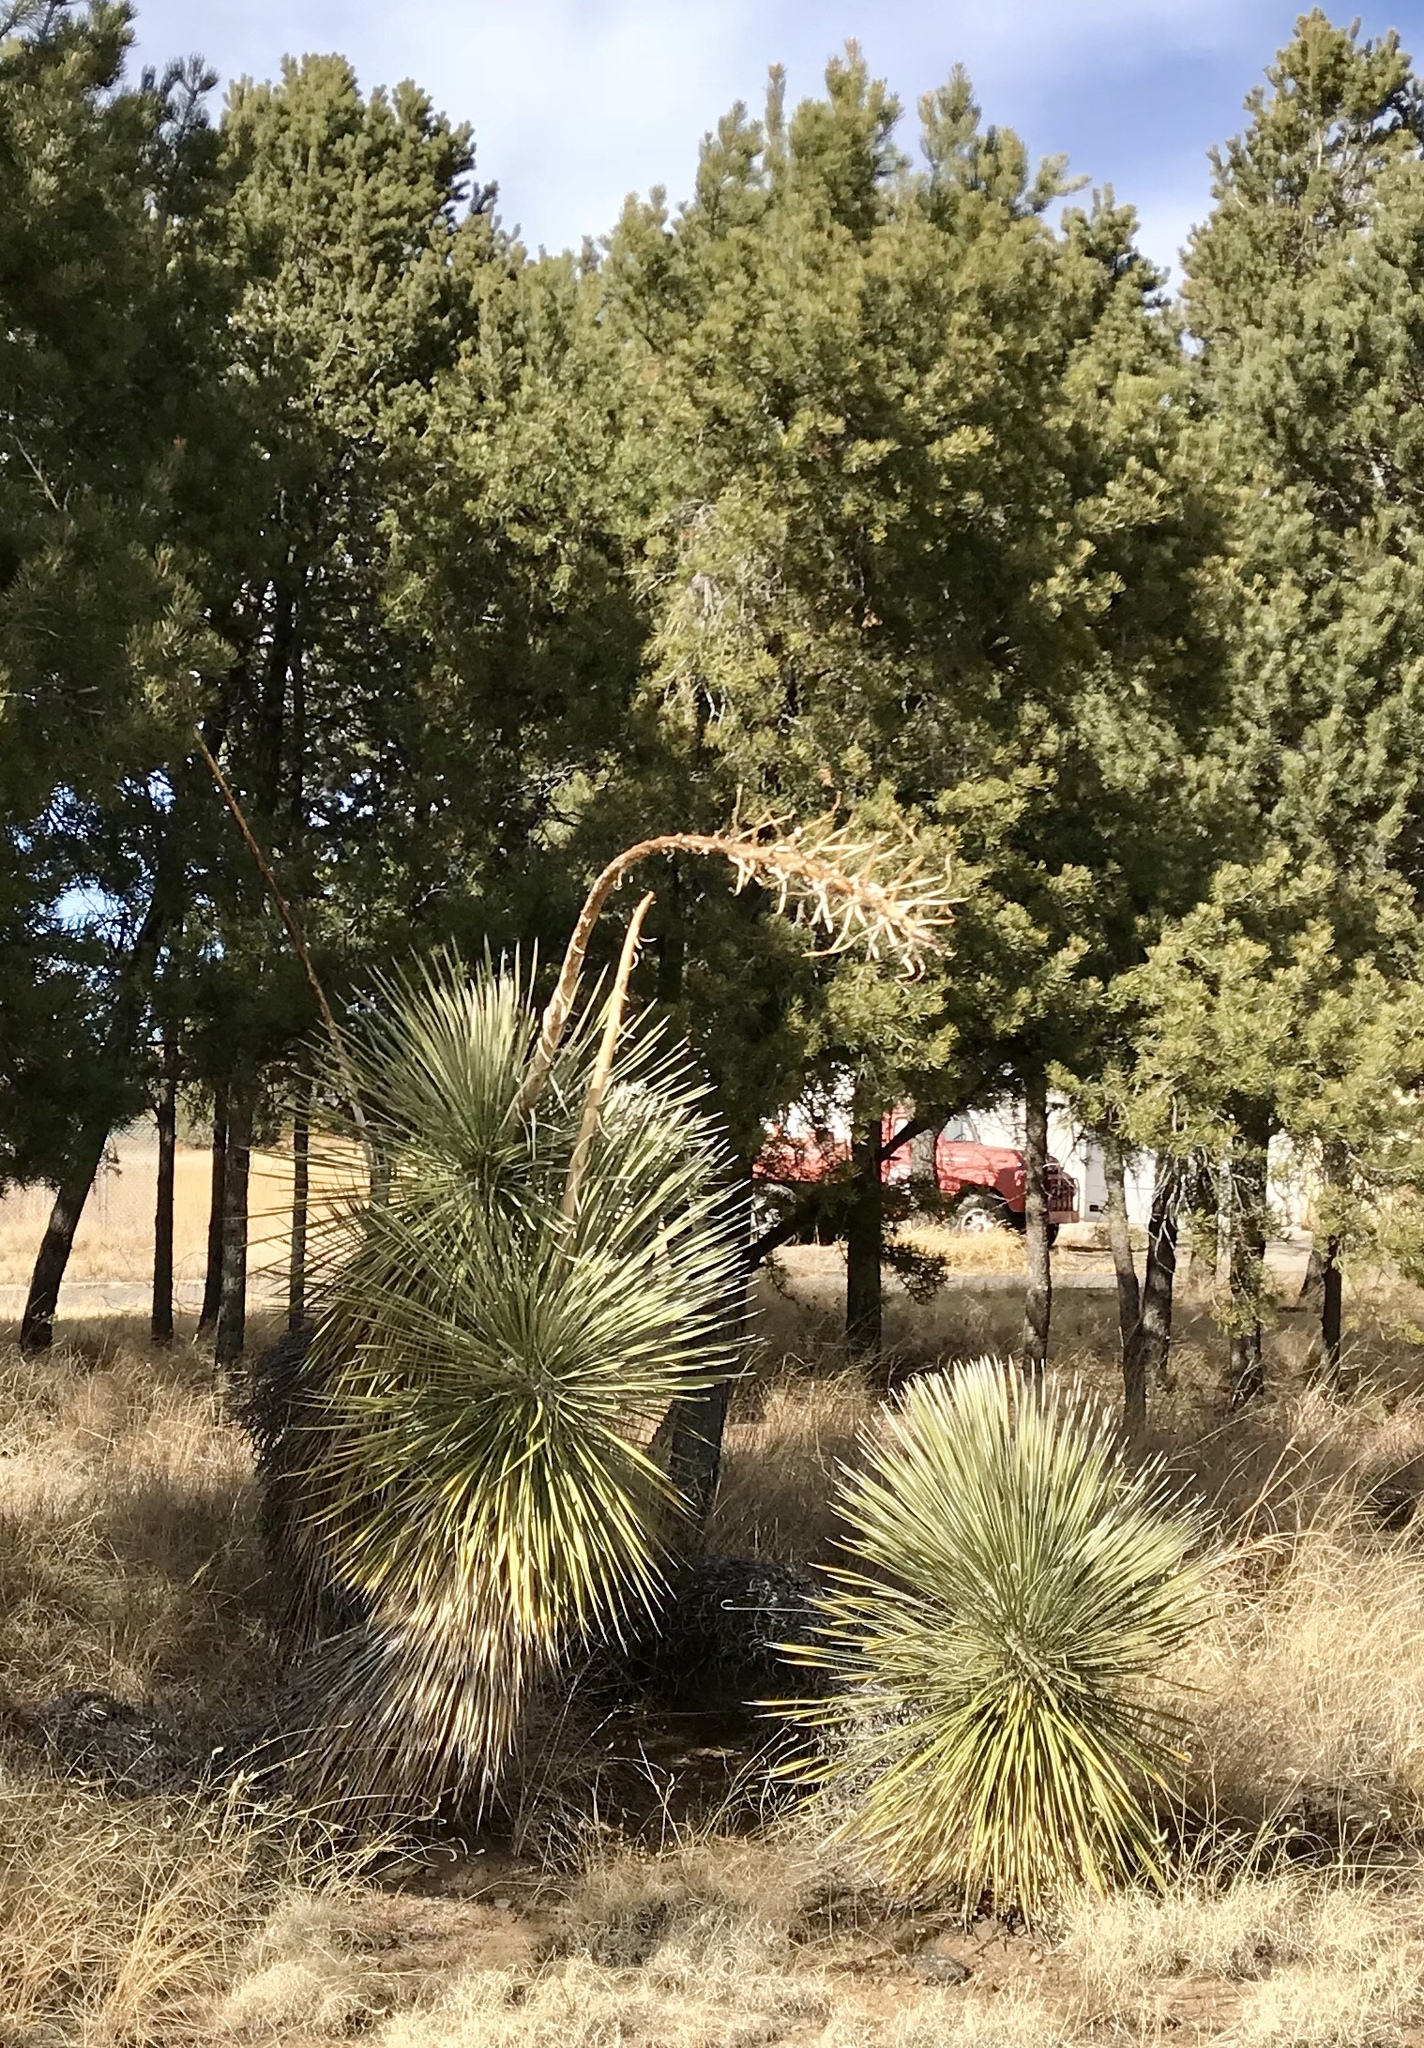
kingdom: Plantae
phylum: Tracheophyta
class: Liliopsida
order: Asparagales
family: Asparagaceae
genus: Yucca
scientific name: Yucca elata
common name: Palmella
